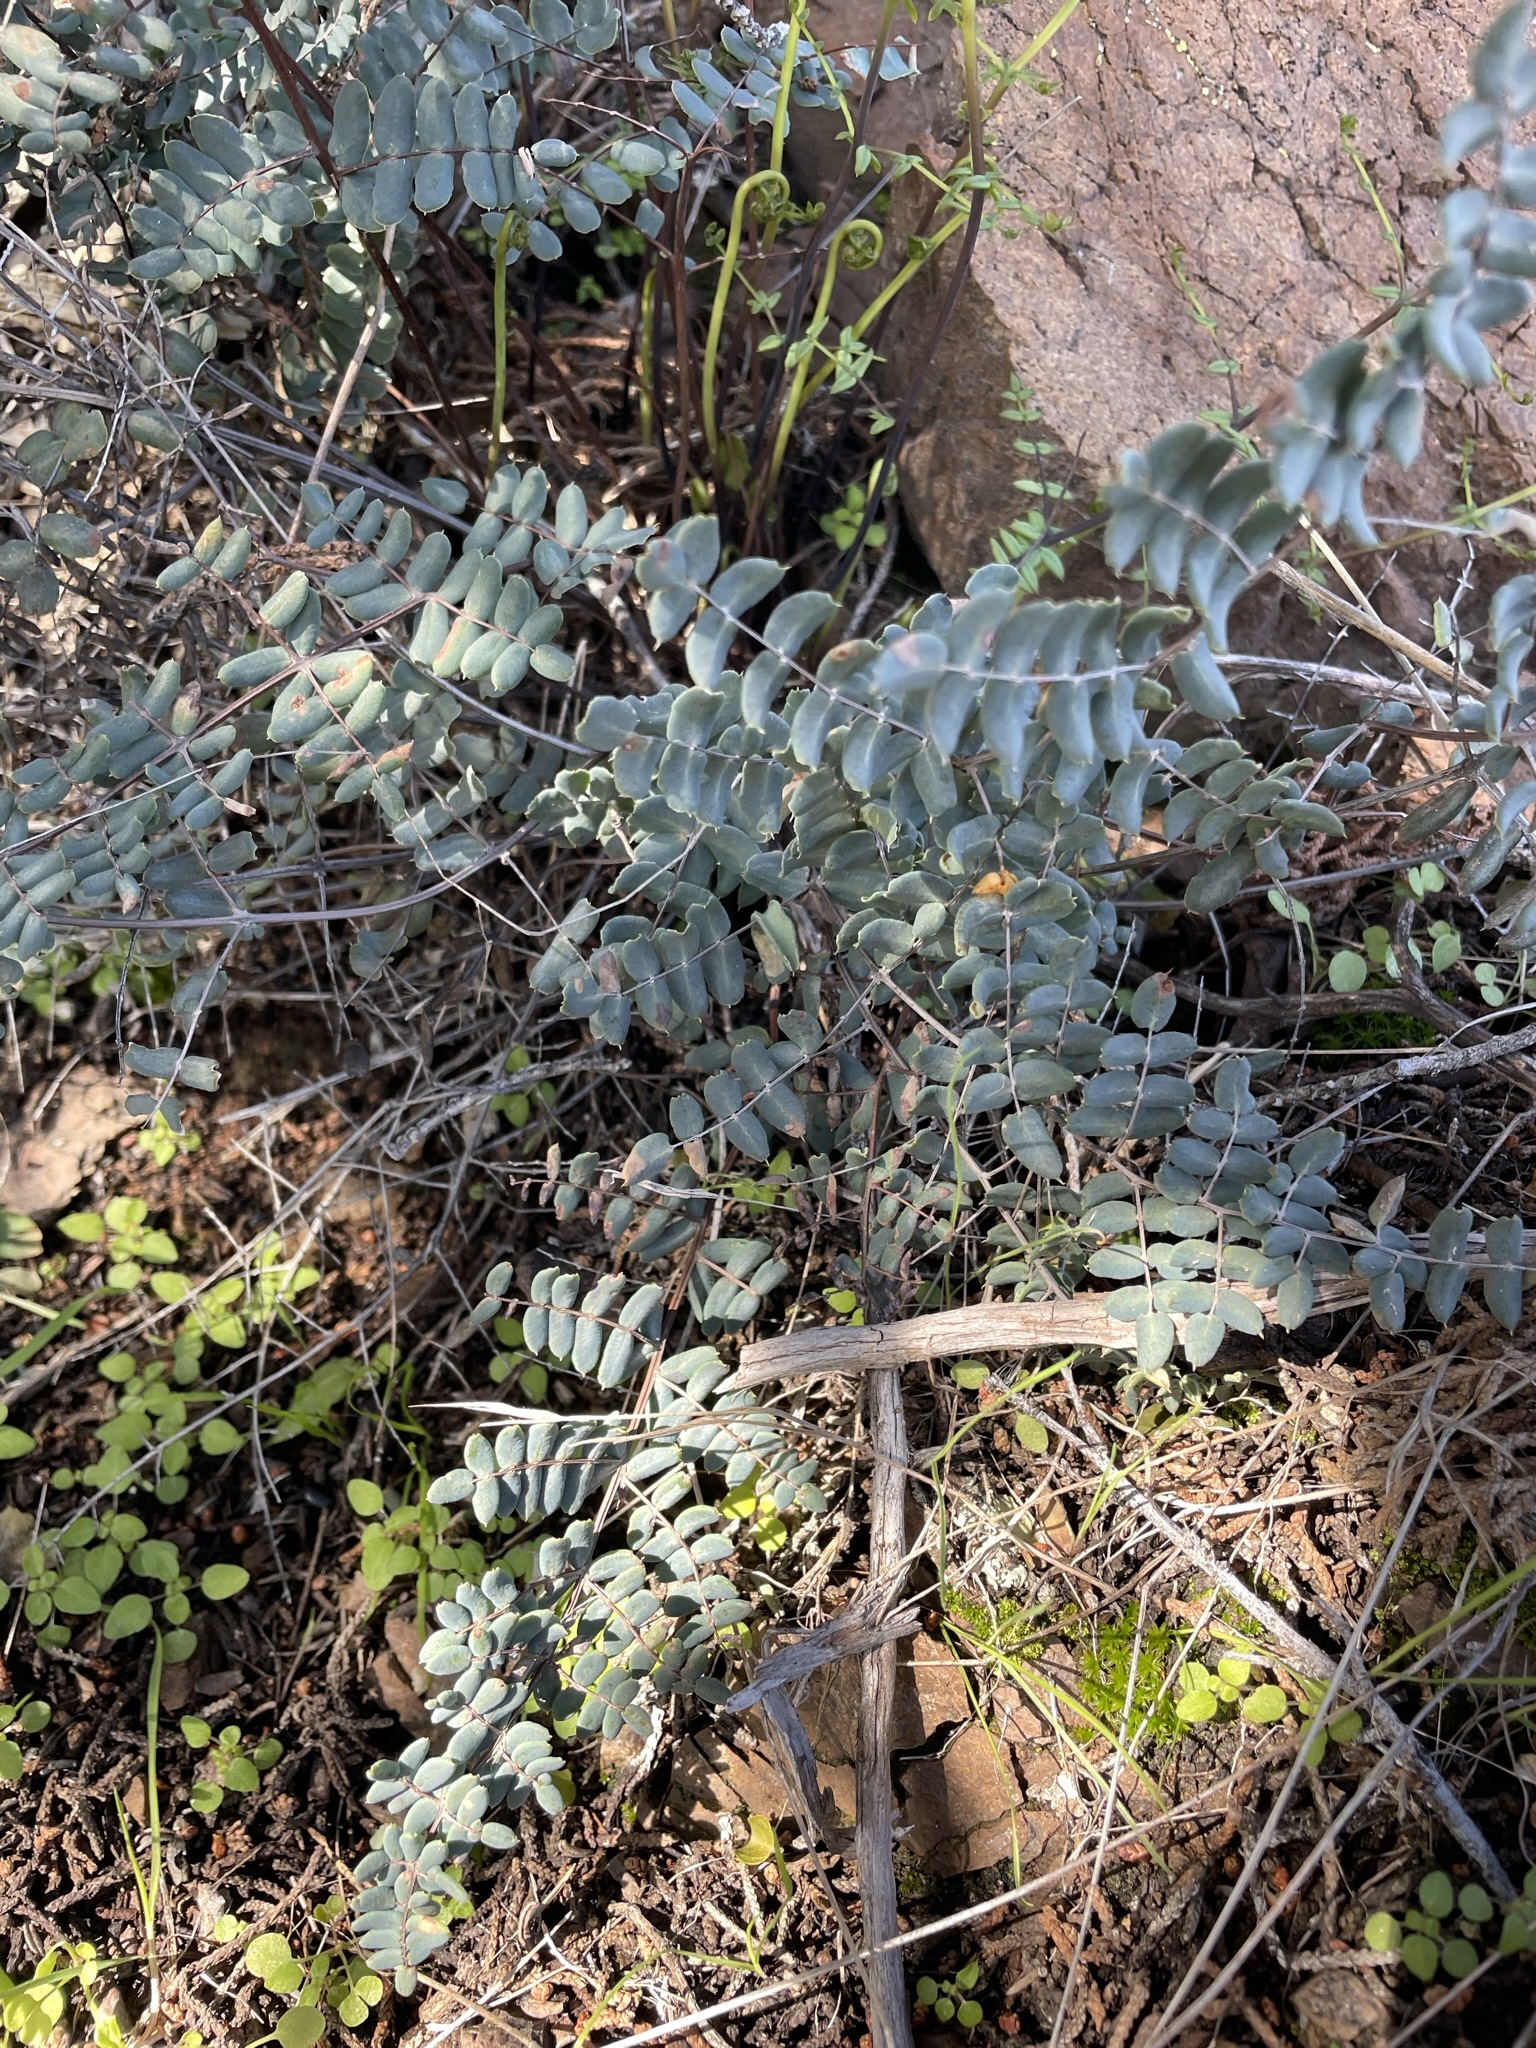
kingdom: Plantae
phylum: Tracheophyta
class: Polypodiopsida
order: Polypodiales
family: Pteridaceae
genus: Pellaea
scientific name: Pellaea truncata
